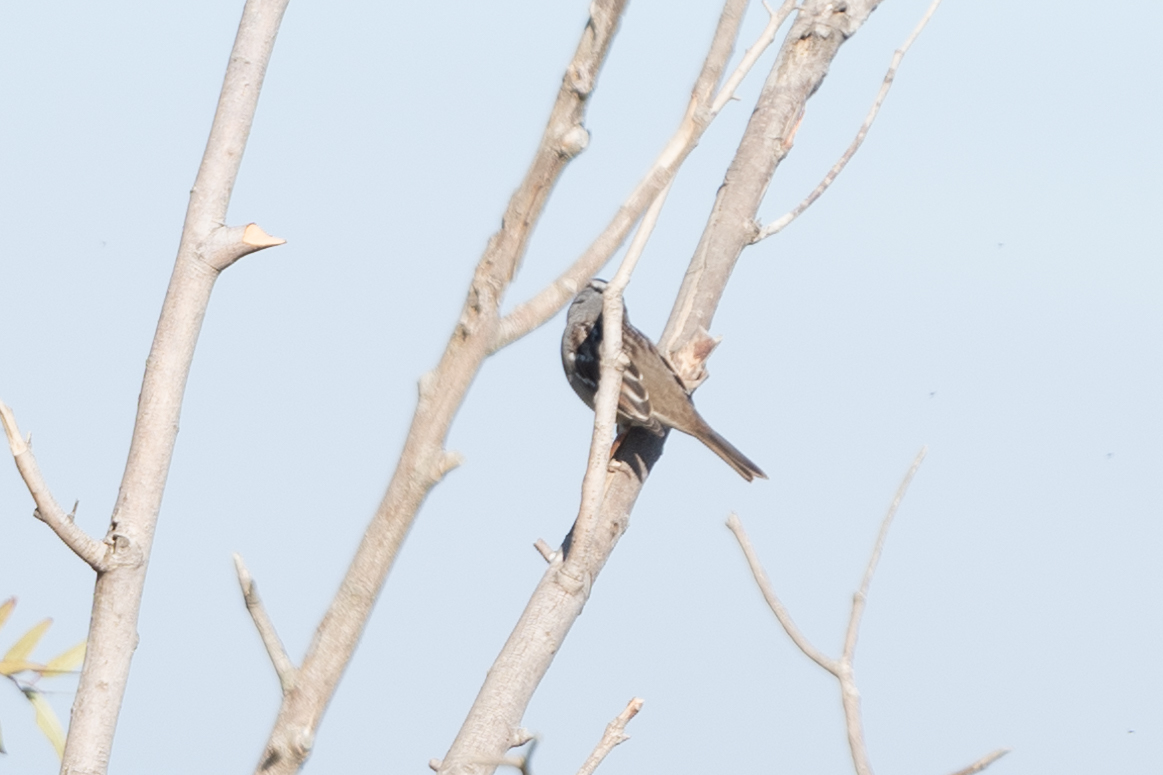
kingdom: Animalia
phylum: Chordata
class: Aves
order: Passeriformes
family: Passerellidae
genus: Zonotrichia
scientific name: Zonotrichia leucophrys
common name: White-crowned sparrow
